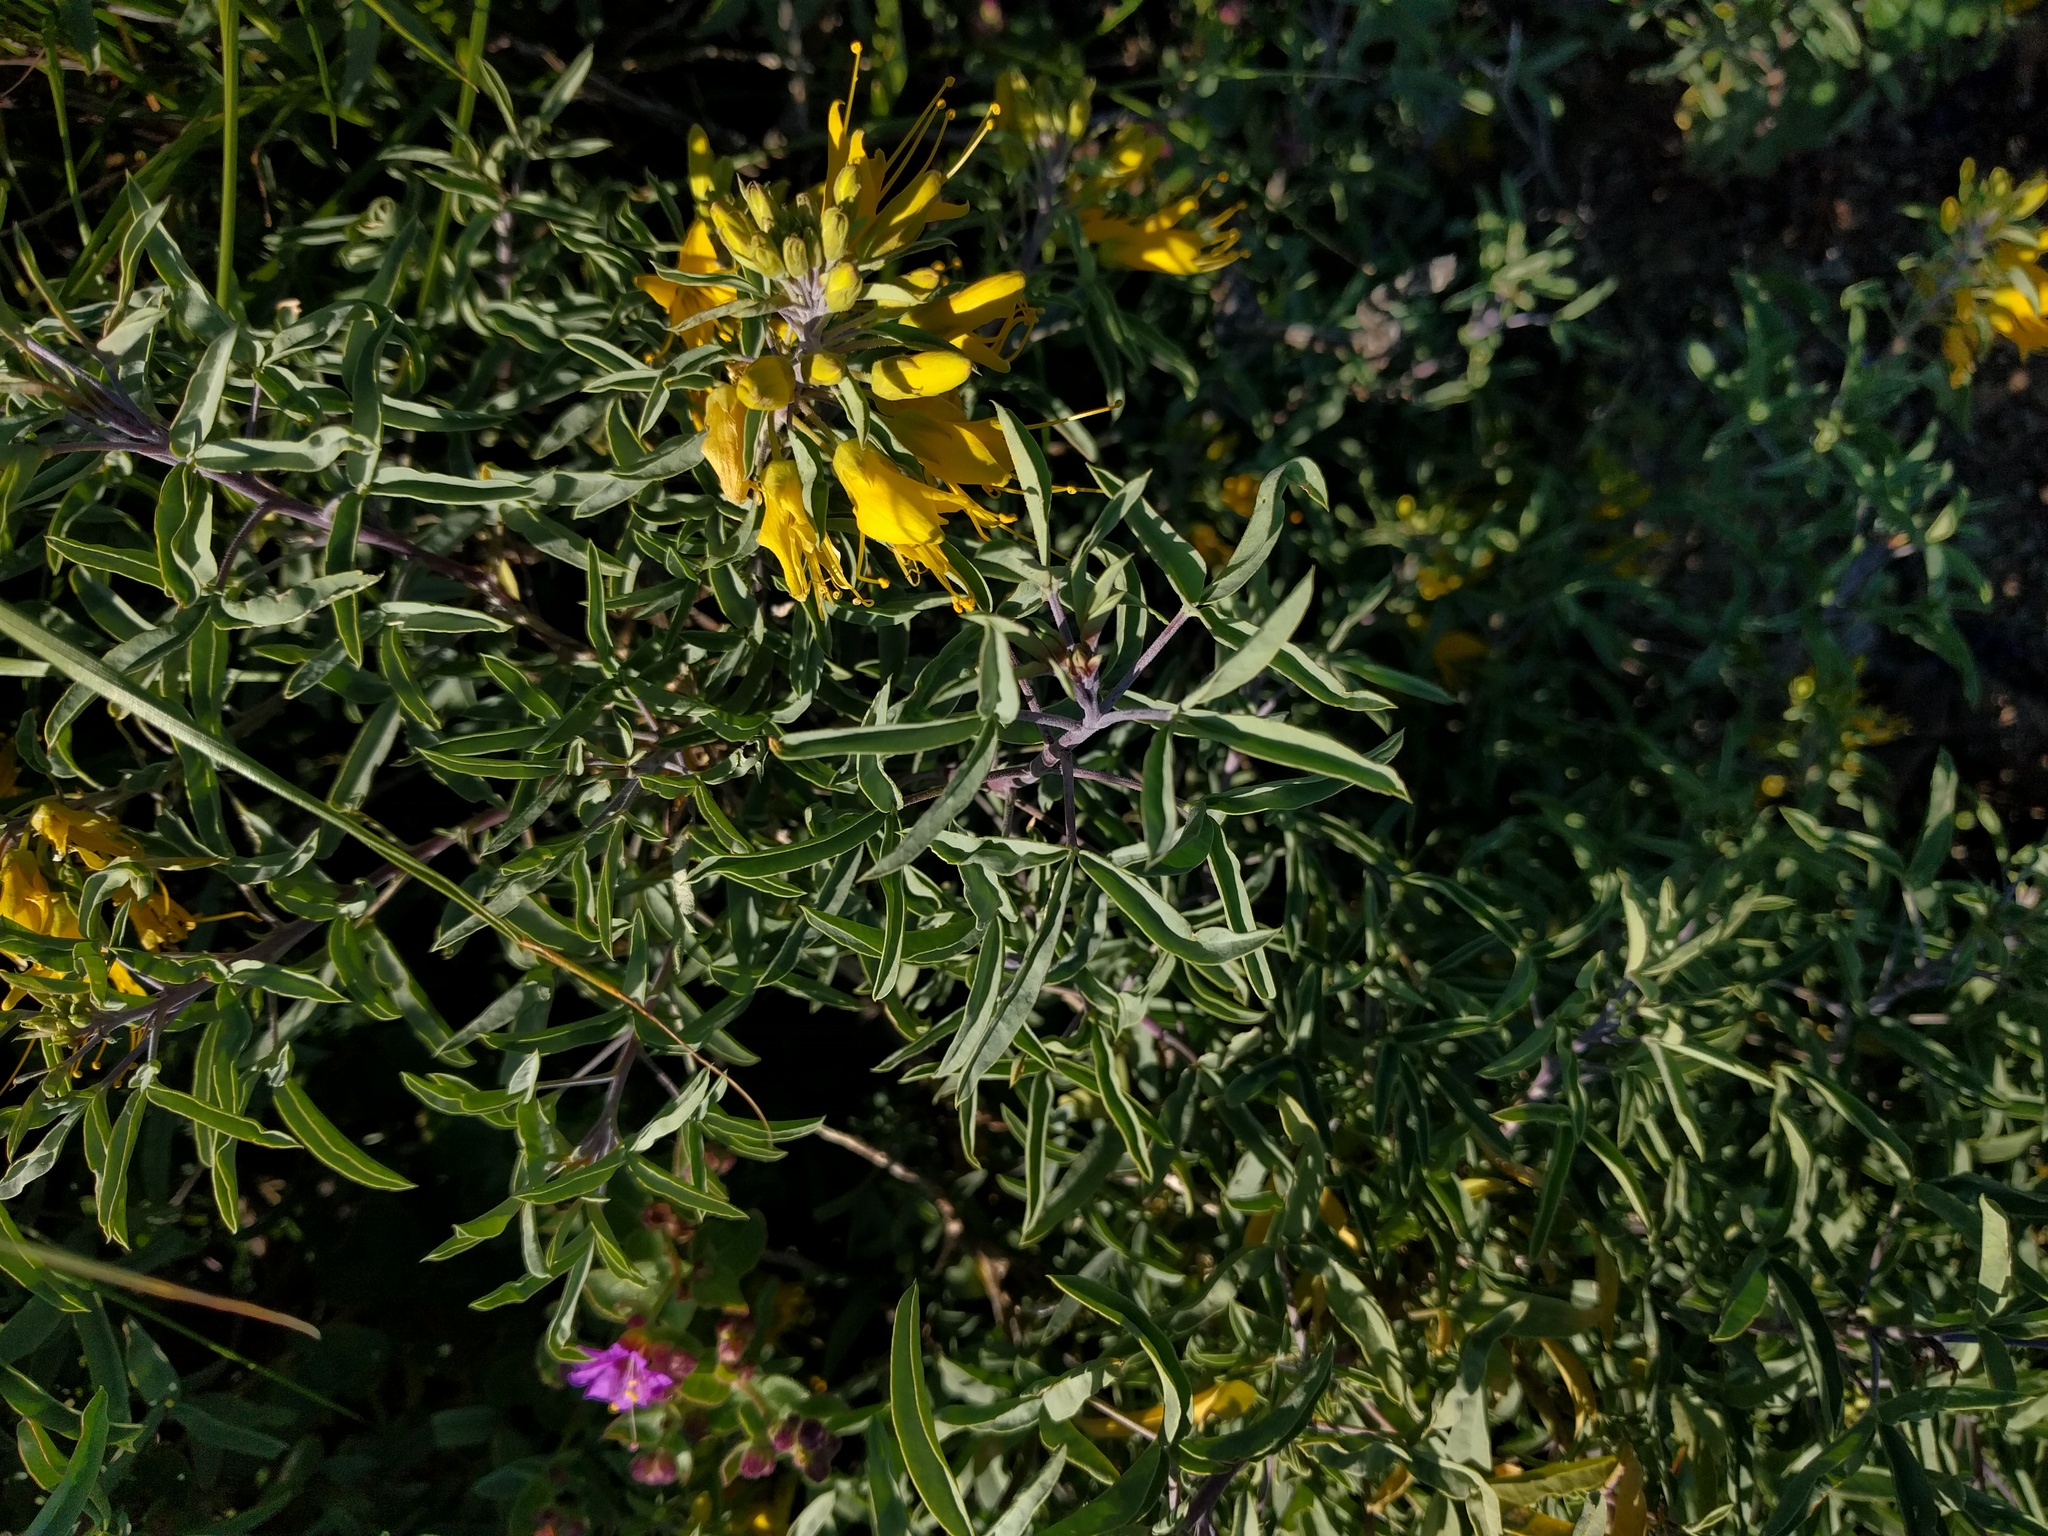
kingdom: Plantae
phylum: Tracheophyta
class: Magnoliopsida
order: Brassicales
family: Cleomaceae
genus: Cleomella
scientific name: Cleomella arborea
